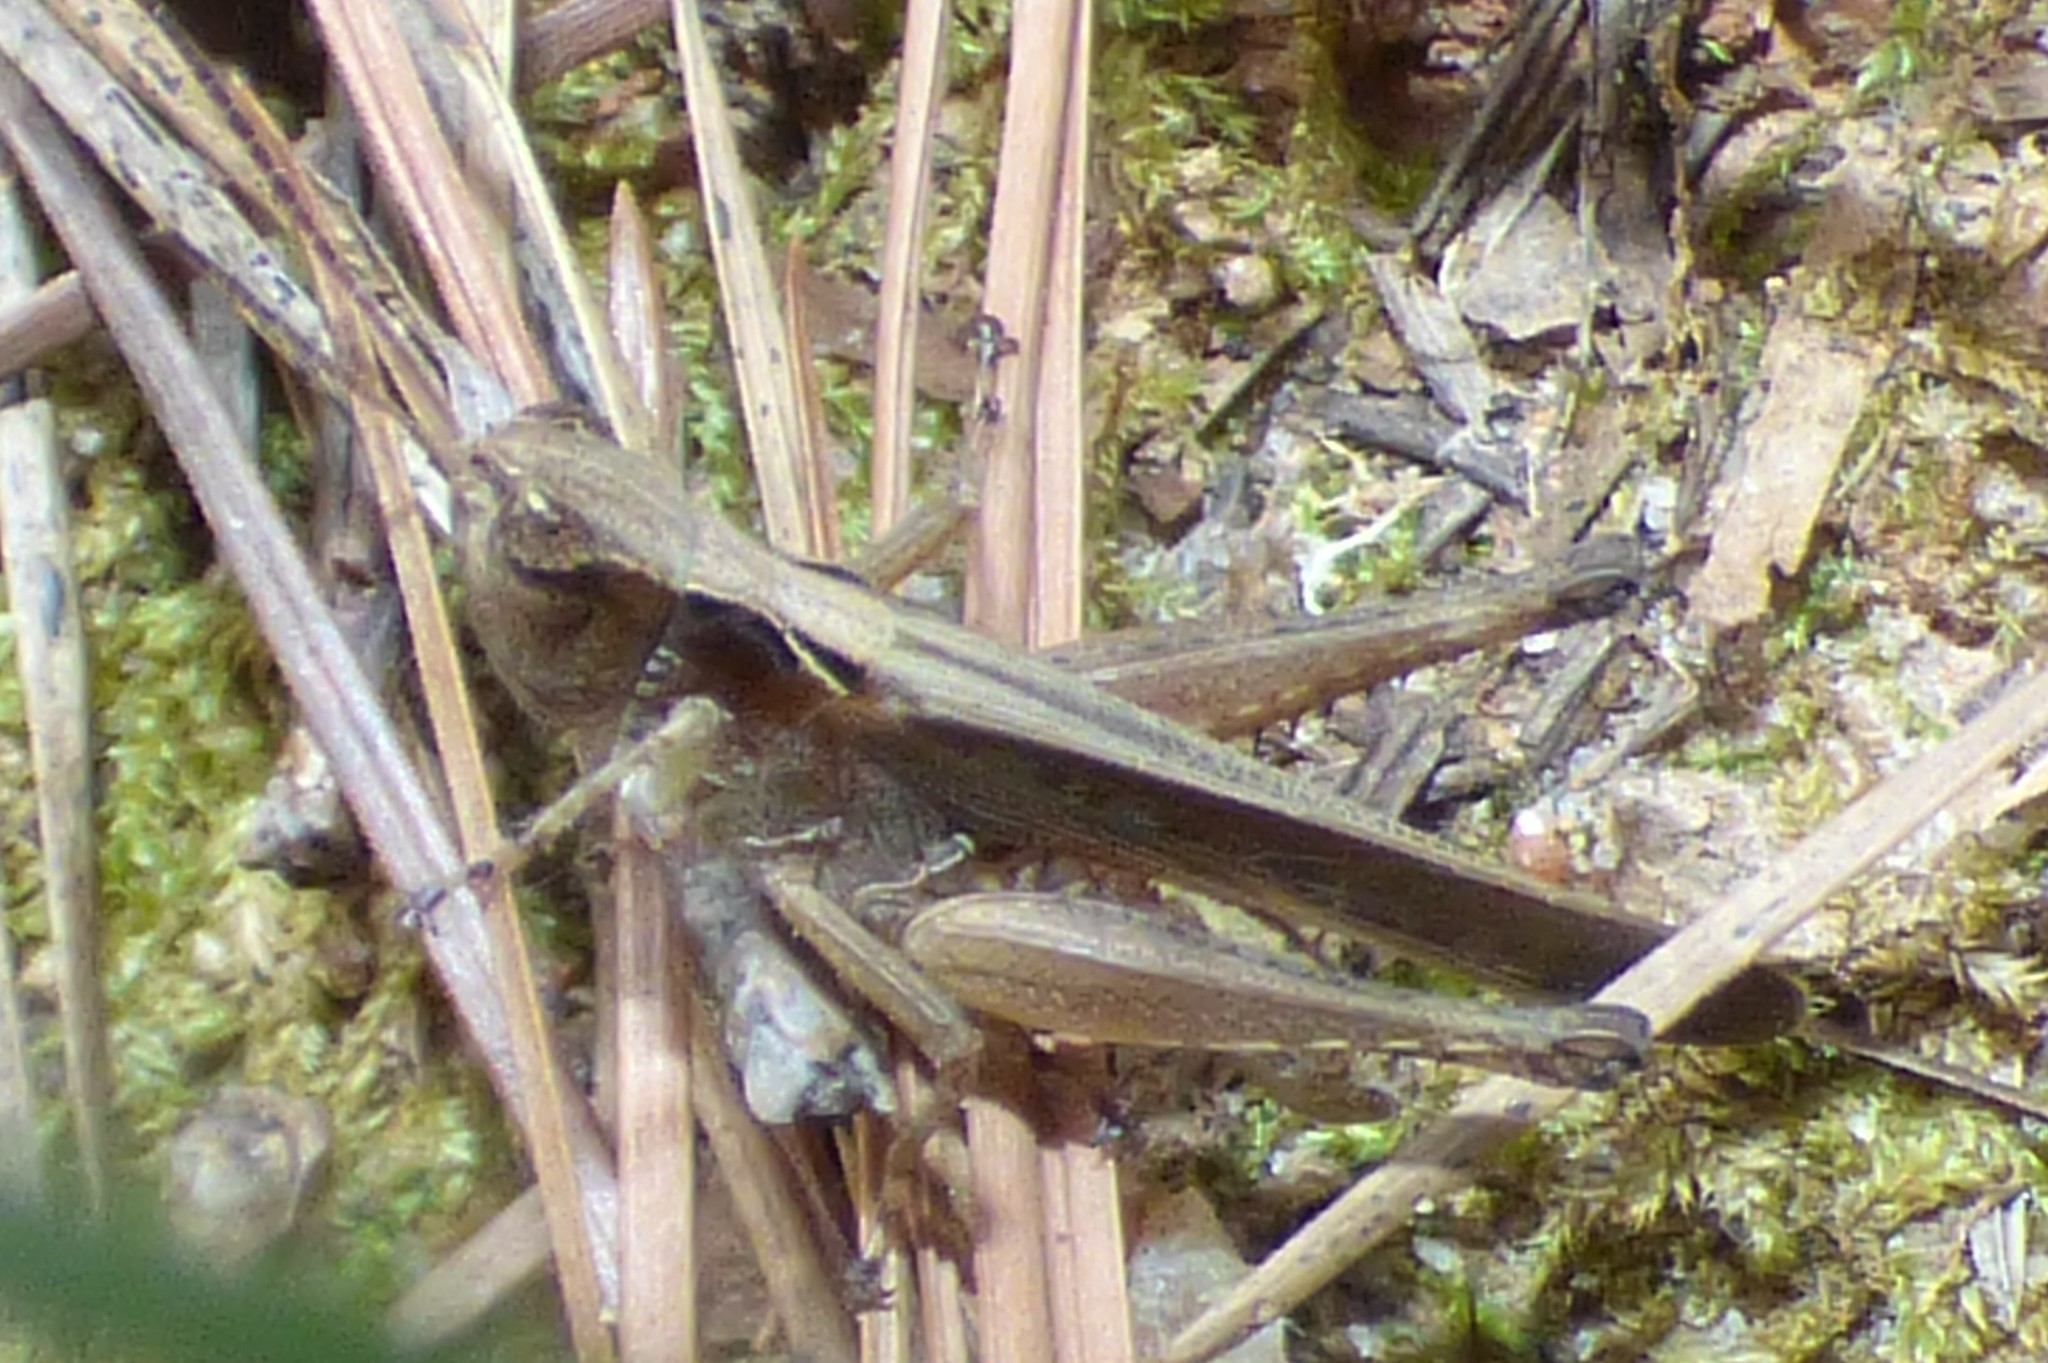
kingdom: Animalia
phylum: Arthropoda
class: Insecta
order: Orthoptera
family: Acrididae
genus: Orphulella
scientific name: Orphulella pelidna
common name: Spotted-wing grasshopper
